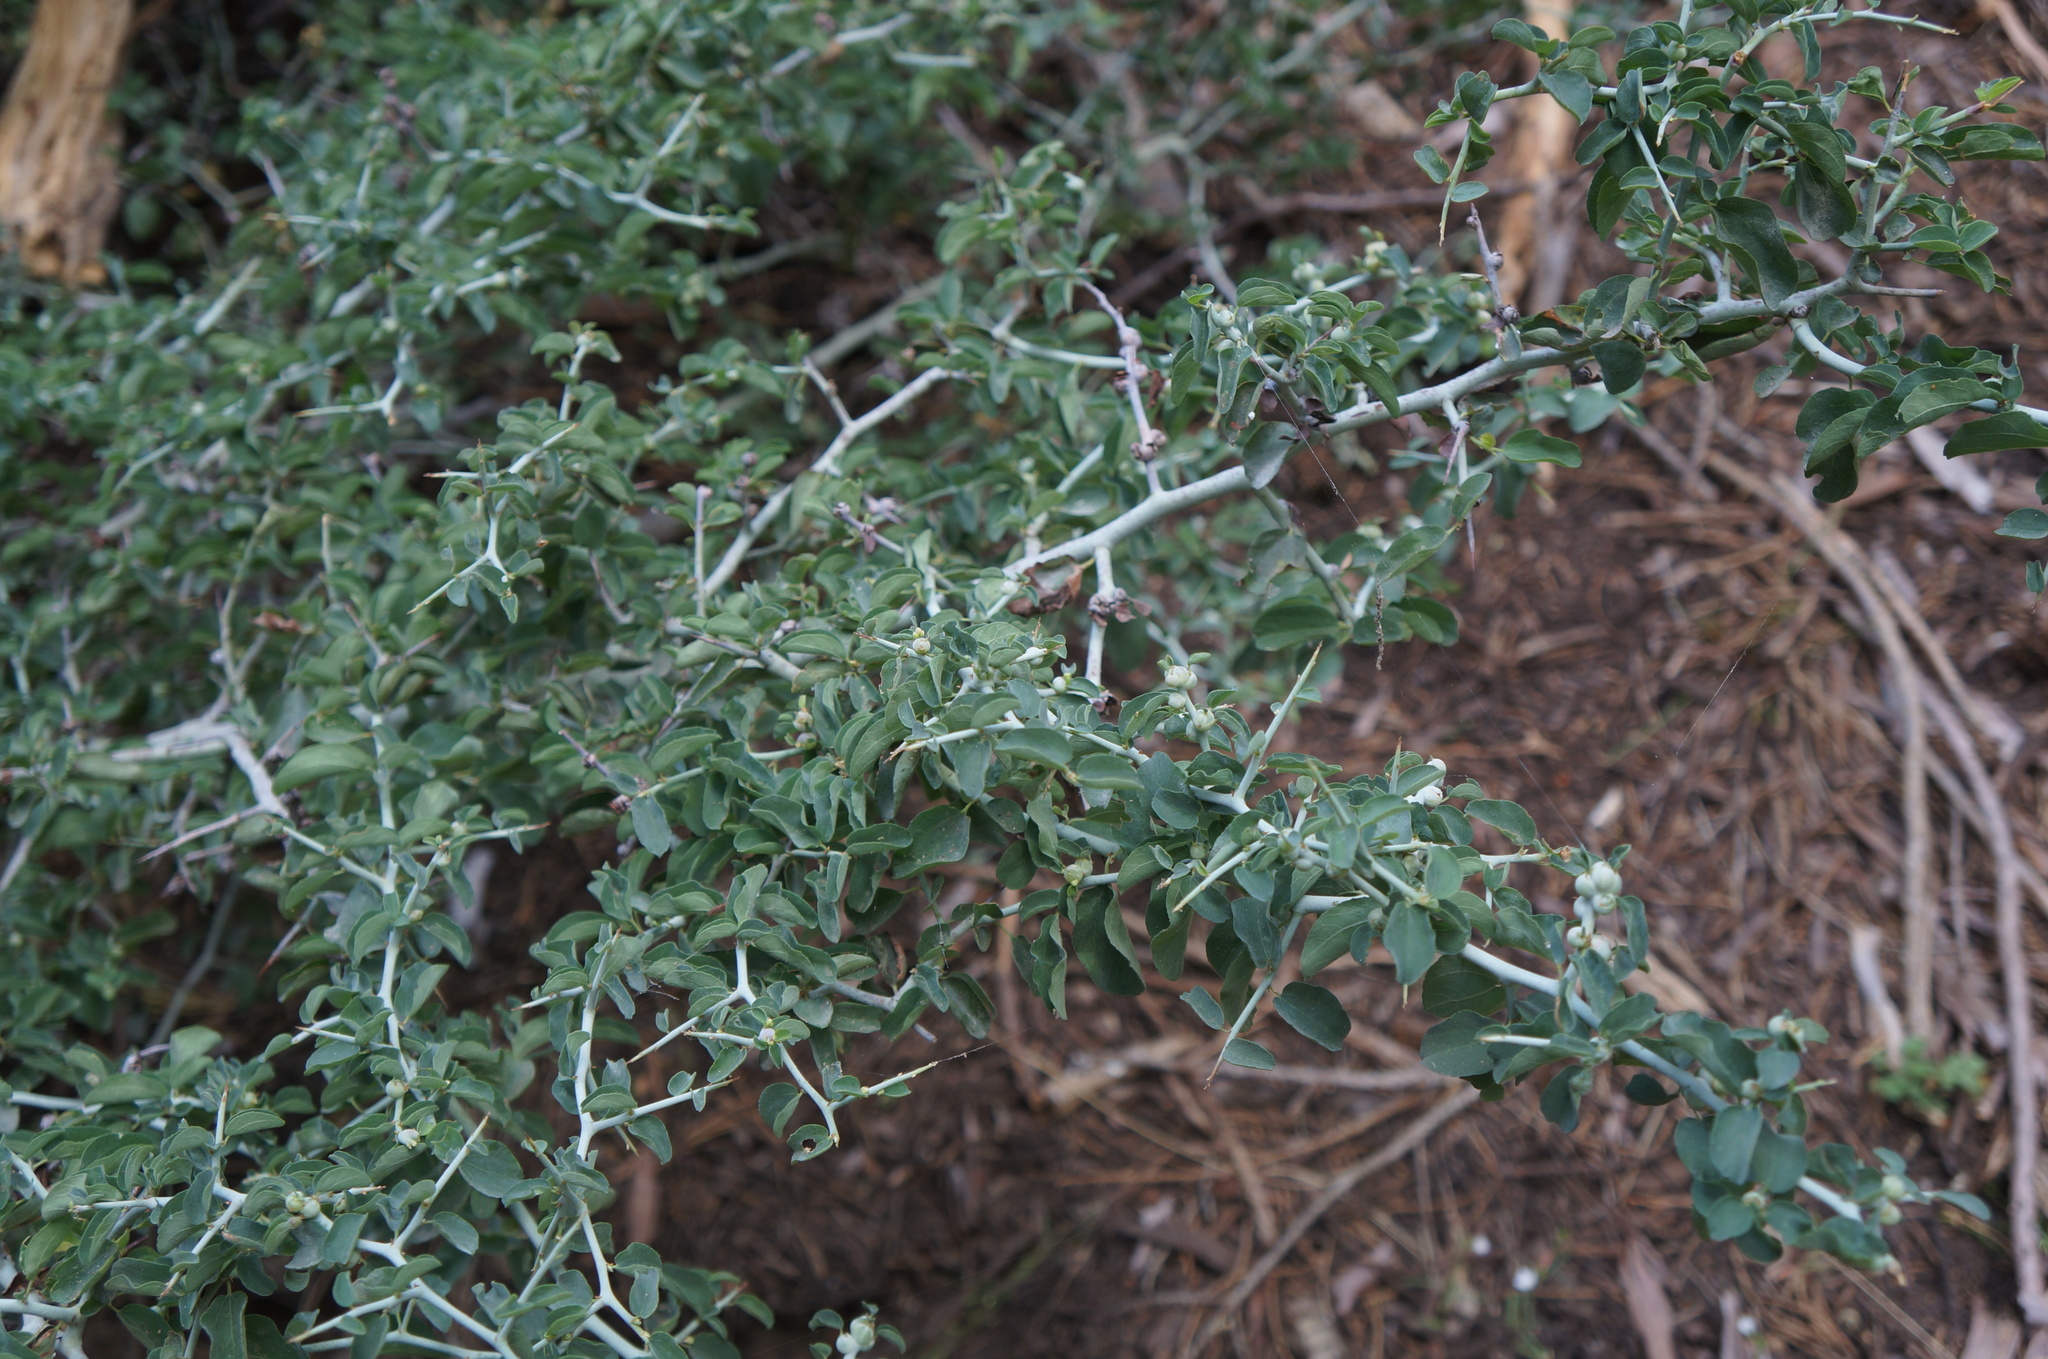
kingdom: Plantae
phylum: Tracheophyta
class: Magnoliopsida
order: Rosales
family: Rhamnaceae
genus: Ceanothus
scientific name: Ceanothus cordulatus
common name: Mountain whitethorn
